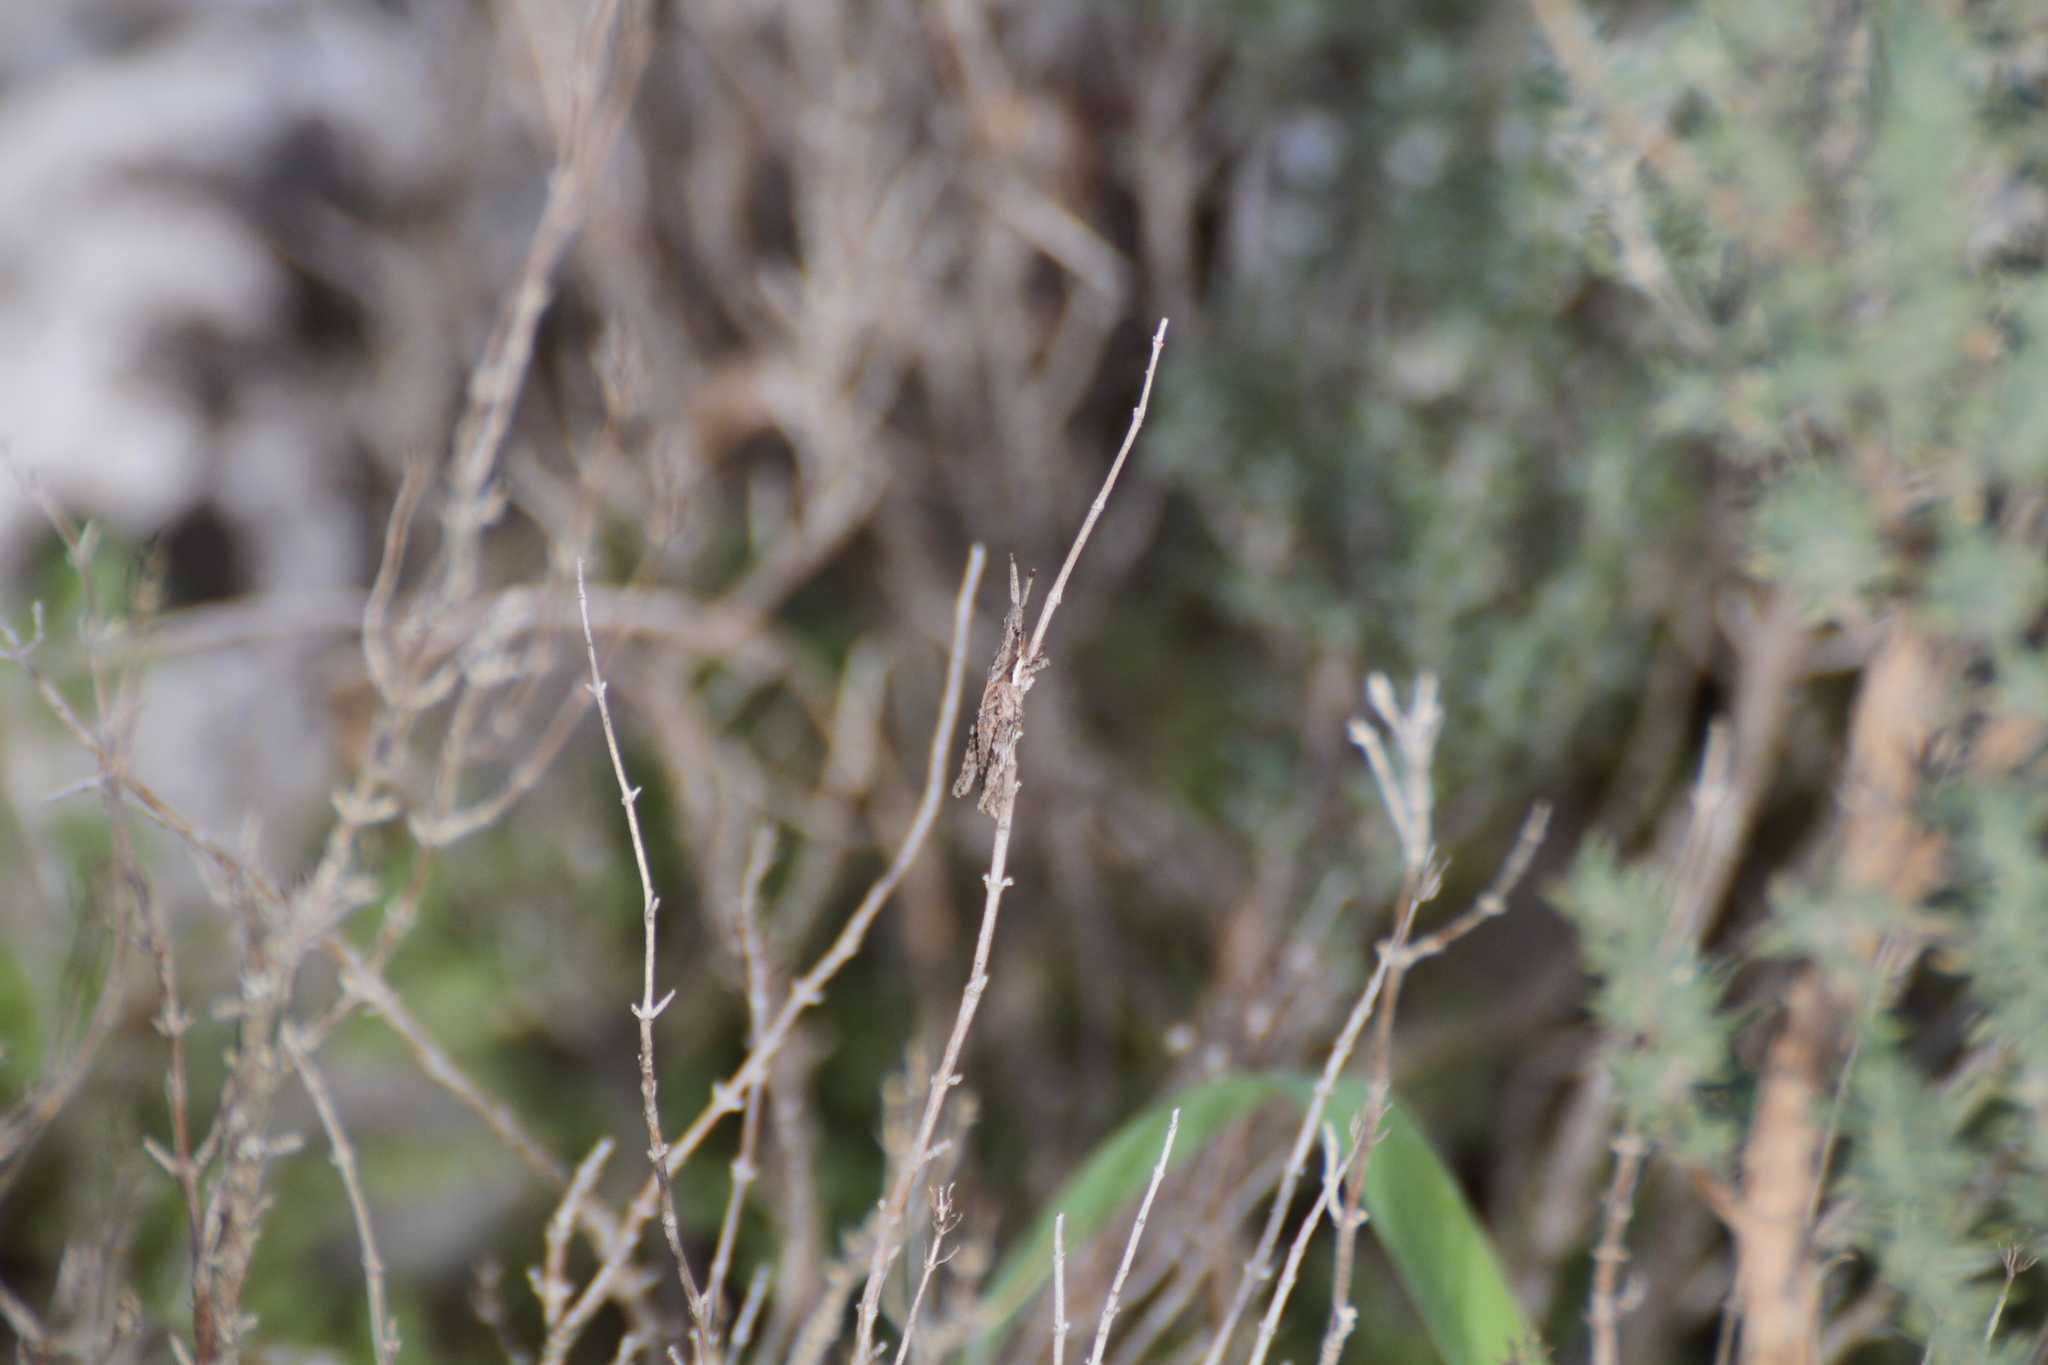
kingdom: Animalia
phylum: Arthropoda
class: Insecta
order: Orthoptera
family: Pyrgomorphidae
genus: Pyrgomorpha
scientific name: Pyrgomorpha conica
